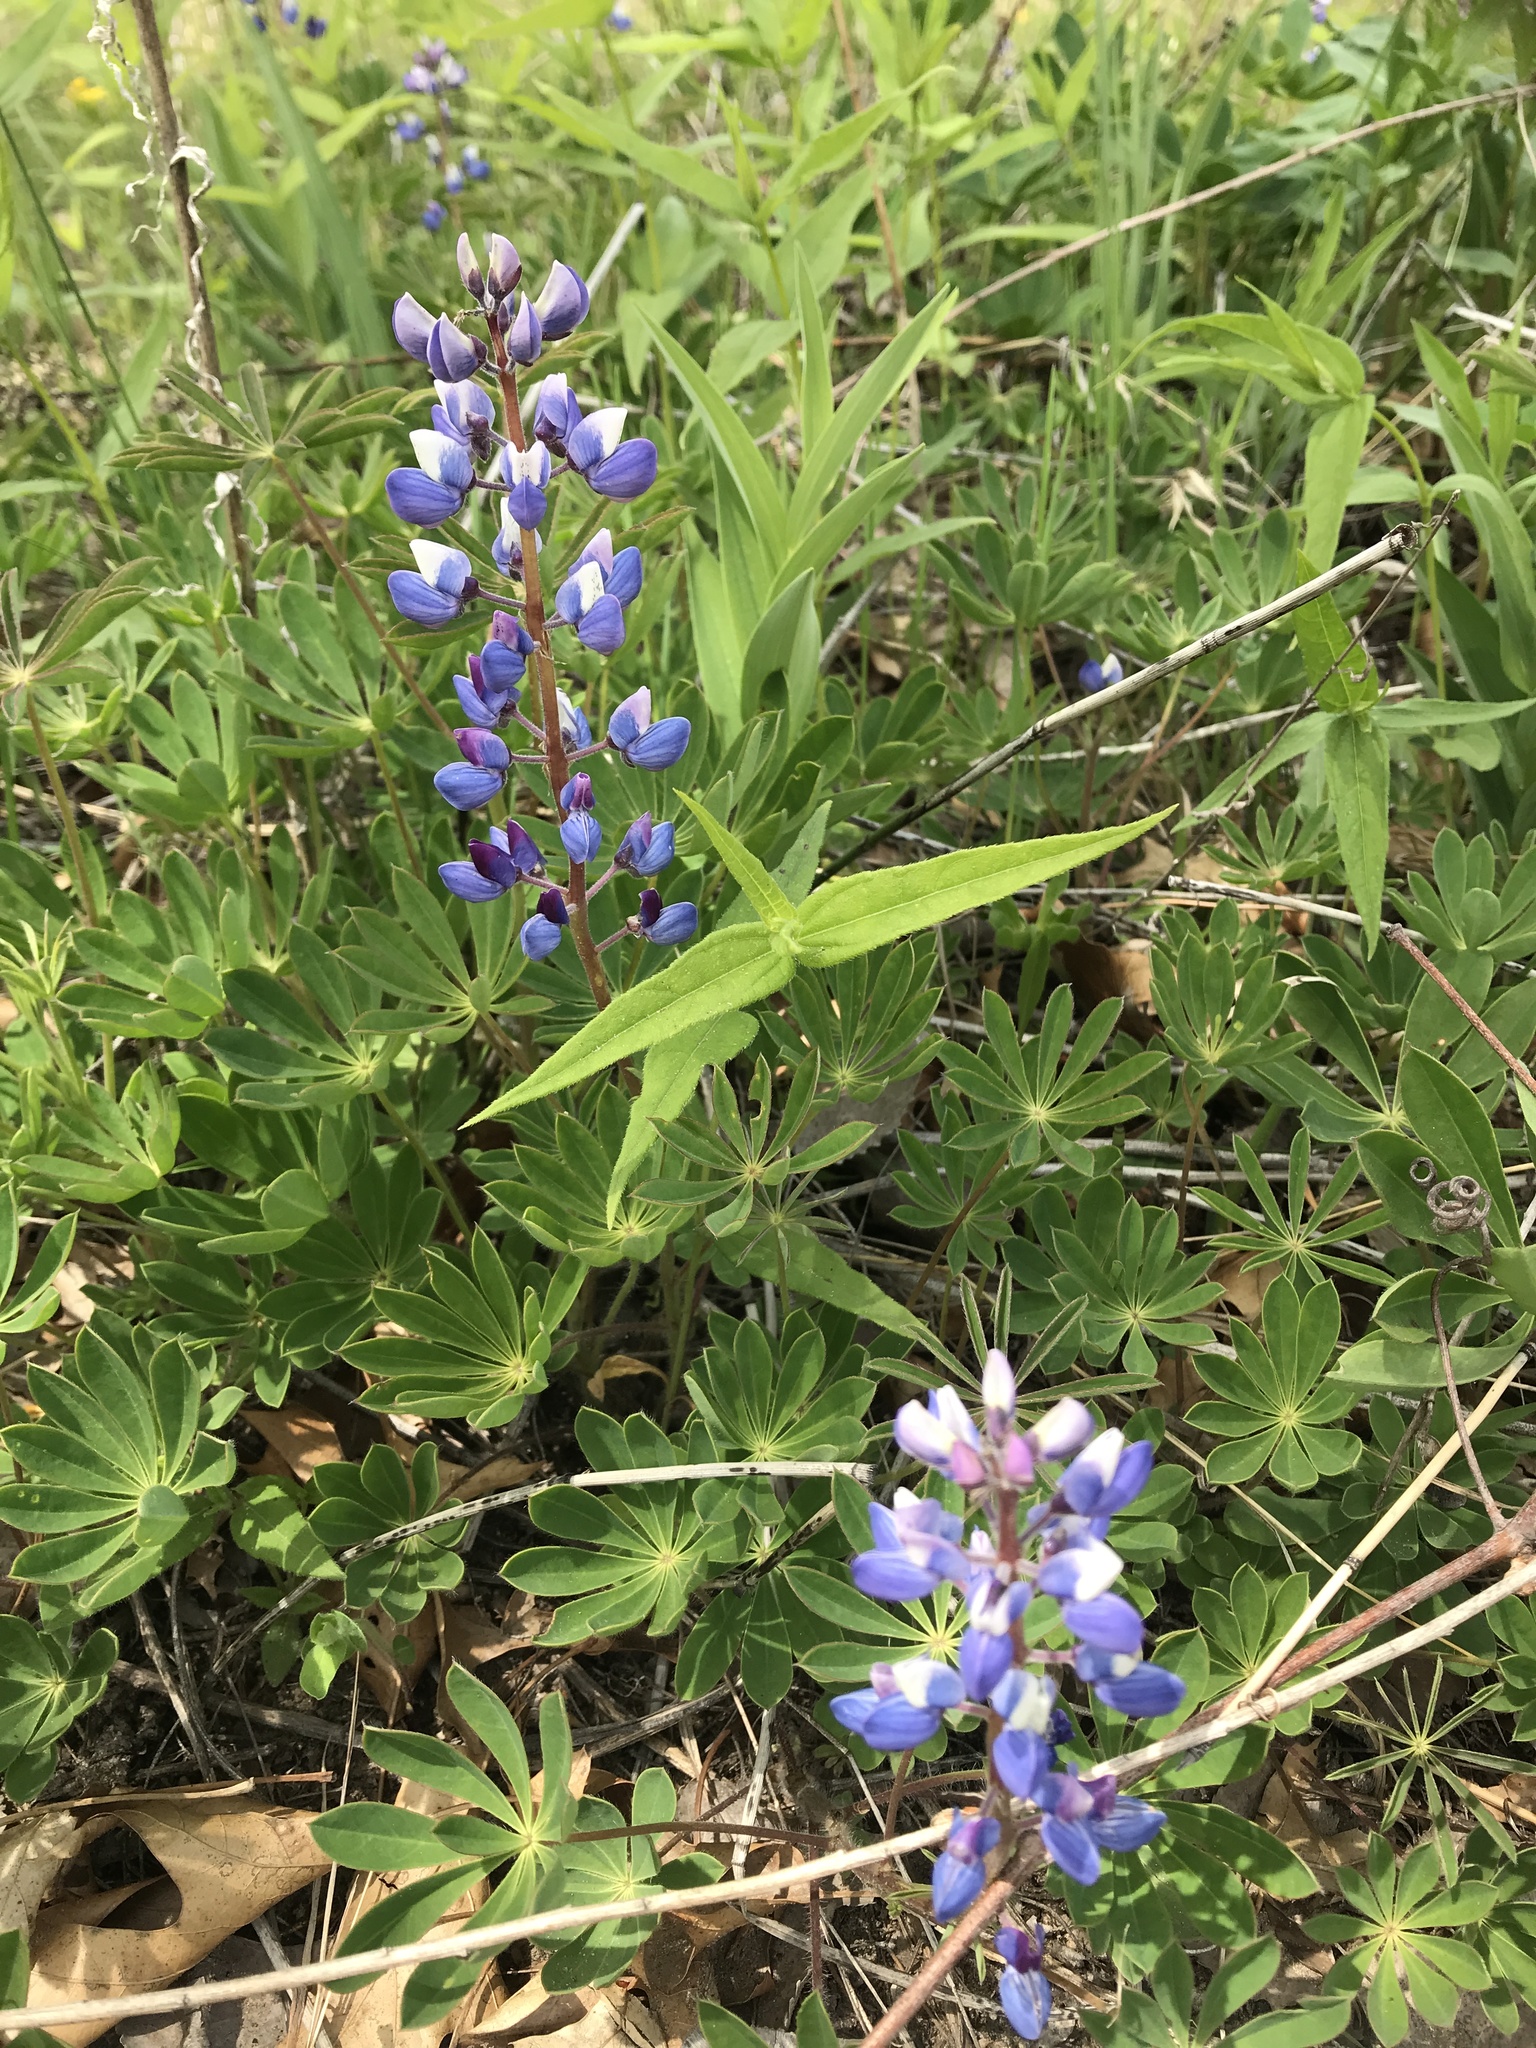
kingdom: Plantae
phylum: Tracheophyta
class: Magnoliopsida
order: Fabales
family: Fabaceae
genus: Lupinus
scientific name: Lupinus perennis
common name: Sundial lupine
